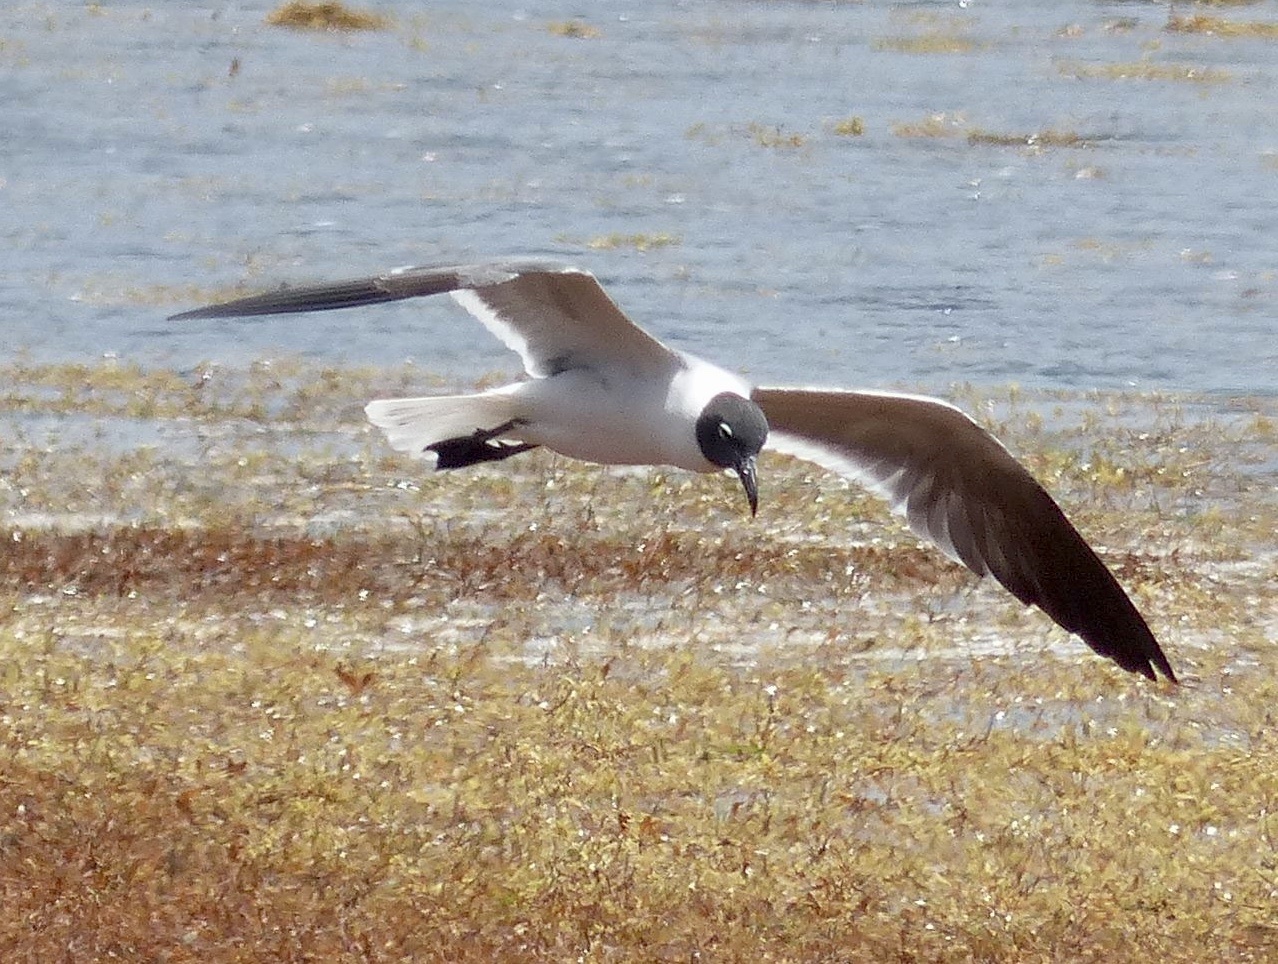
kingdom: Animalia
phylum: Chordata
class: Aves
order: Charadriiformes
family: Laridae
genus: Leucophaeus
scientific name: Leucophaeus atricilla
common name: Laughing gull
